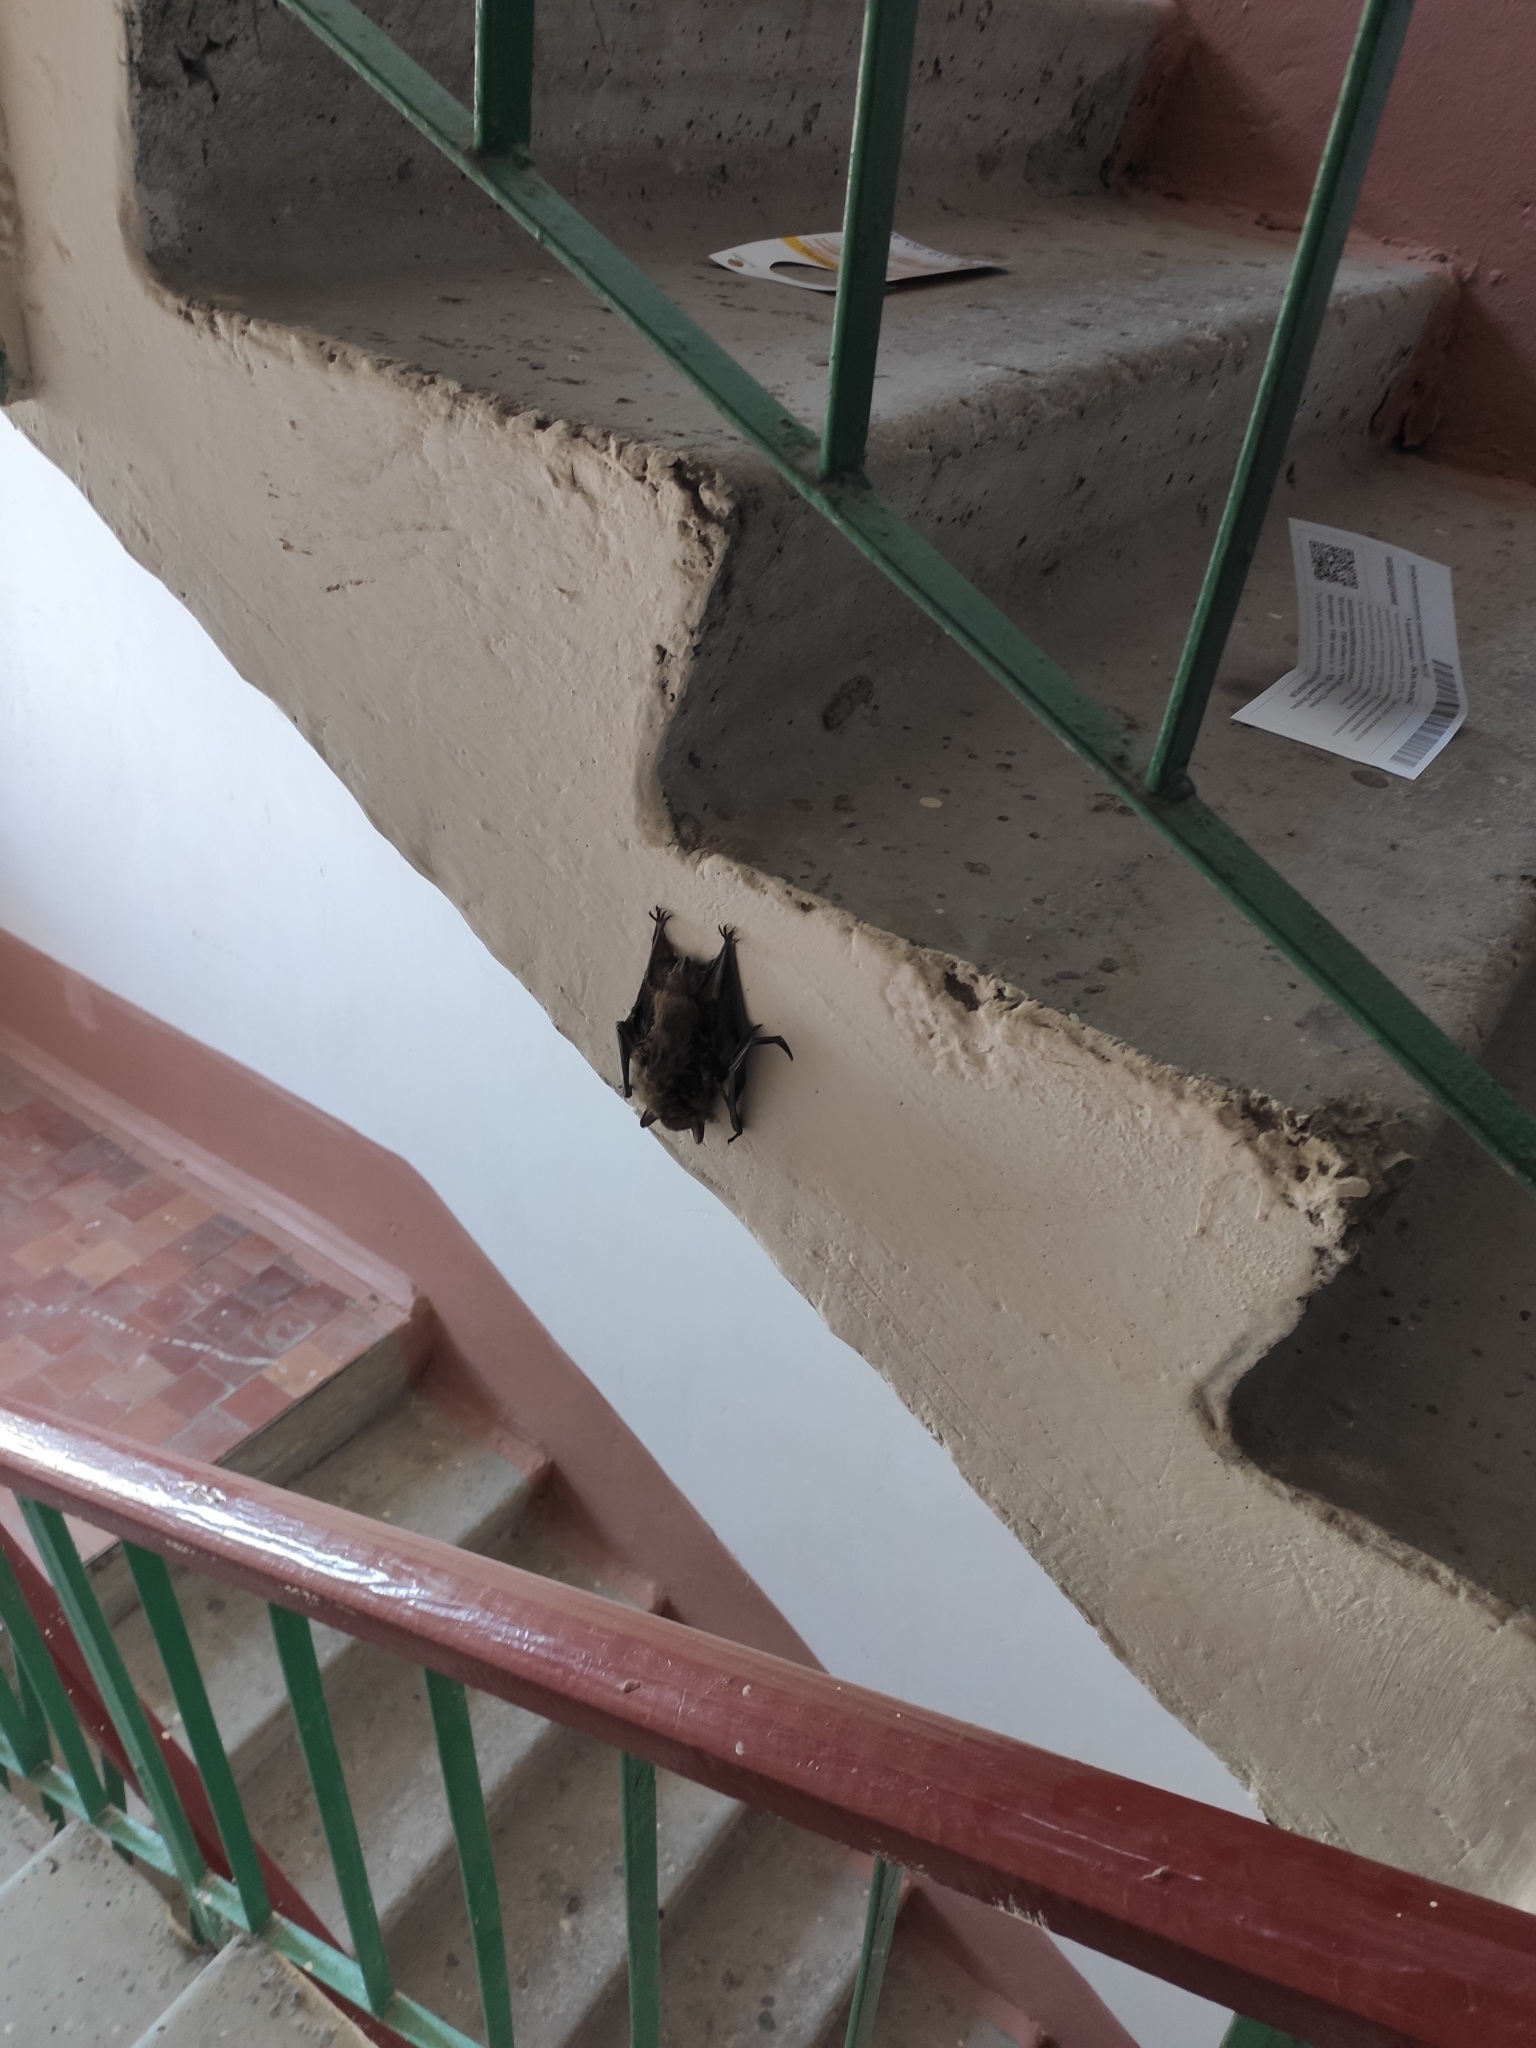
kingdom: Animalia
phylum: Chordata
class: Mammalia
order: Chiroptera
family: Vespertilionidae
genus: Eptesicus
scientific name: Eptesicus serotinus
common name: Serotine
